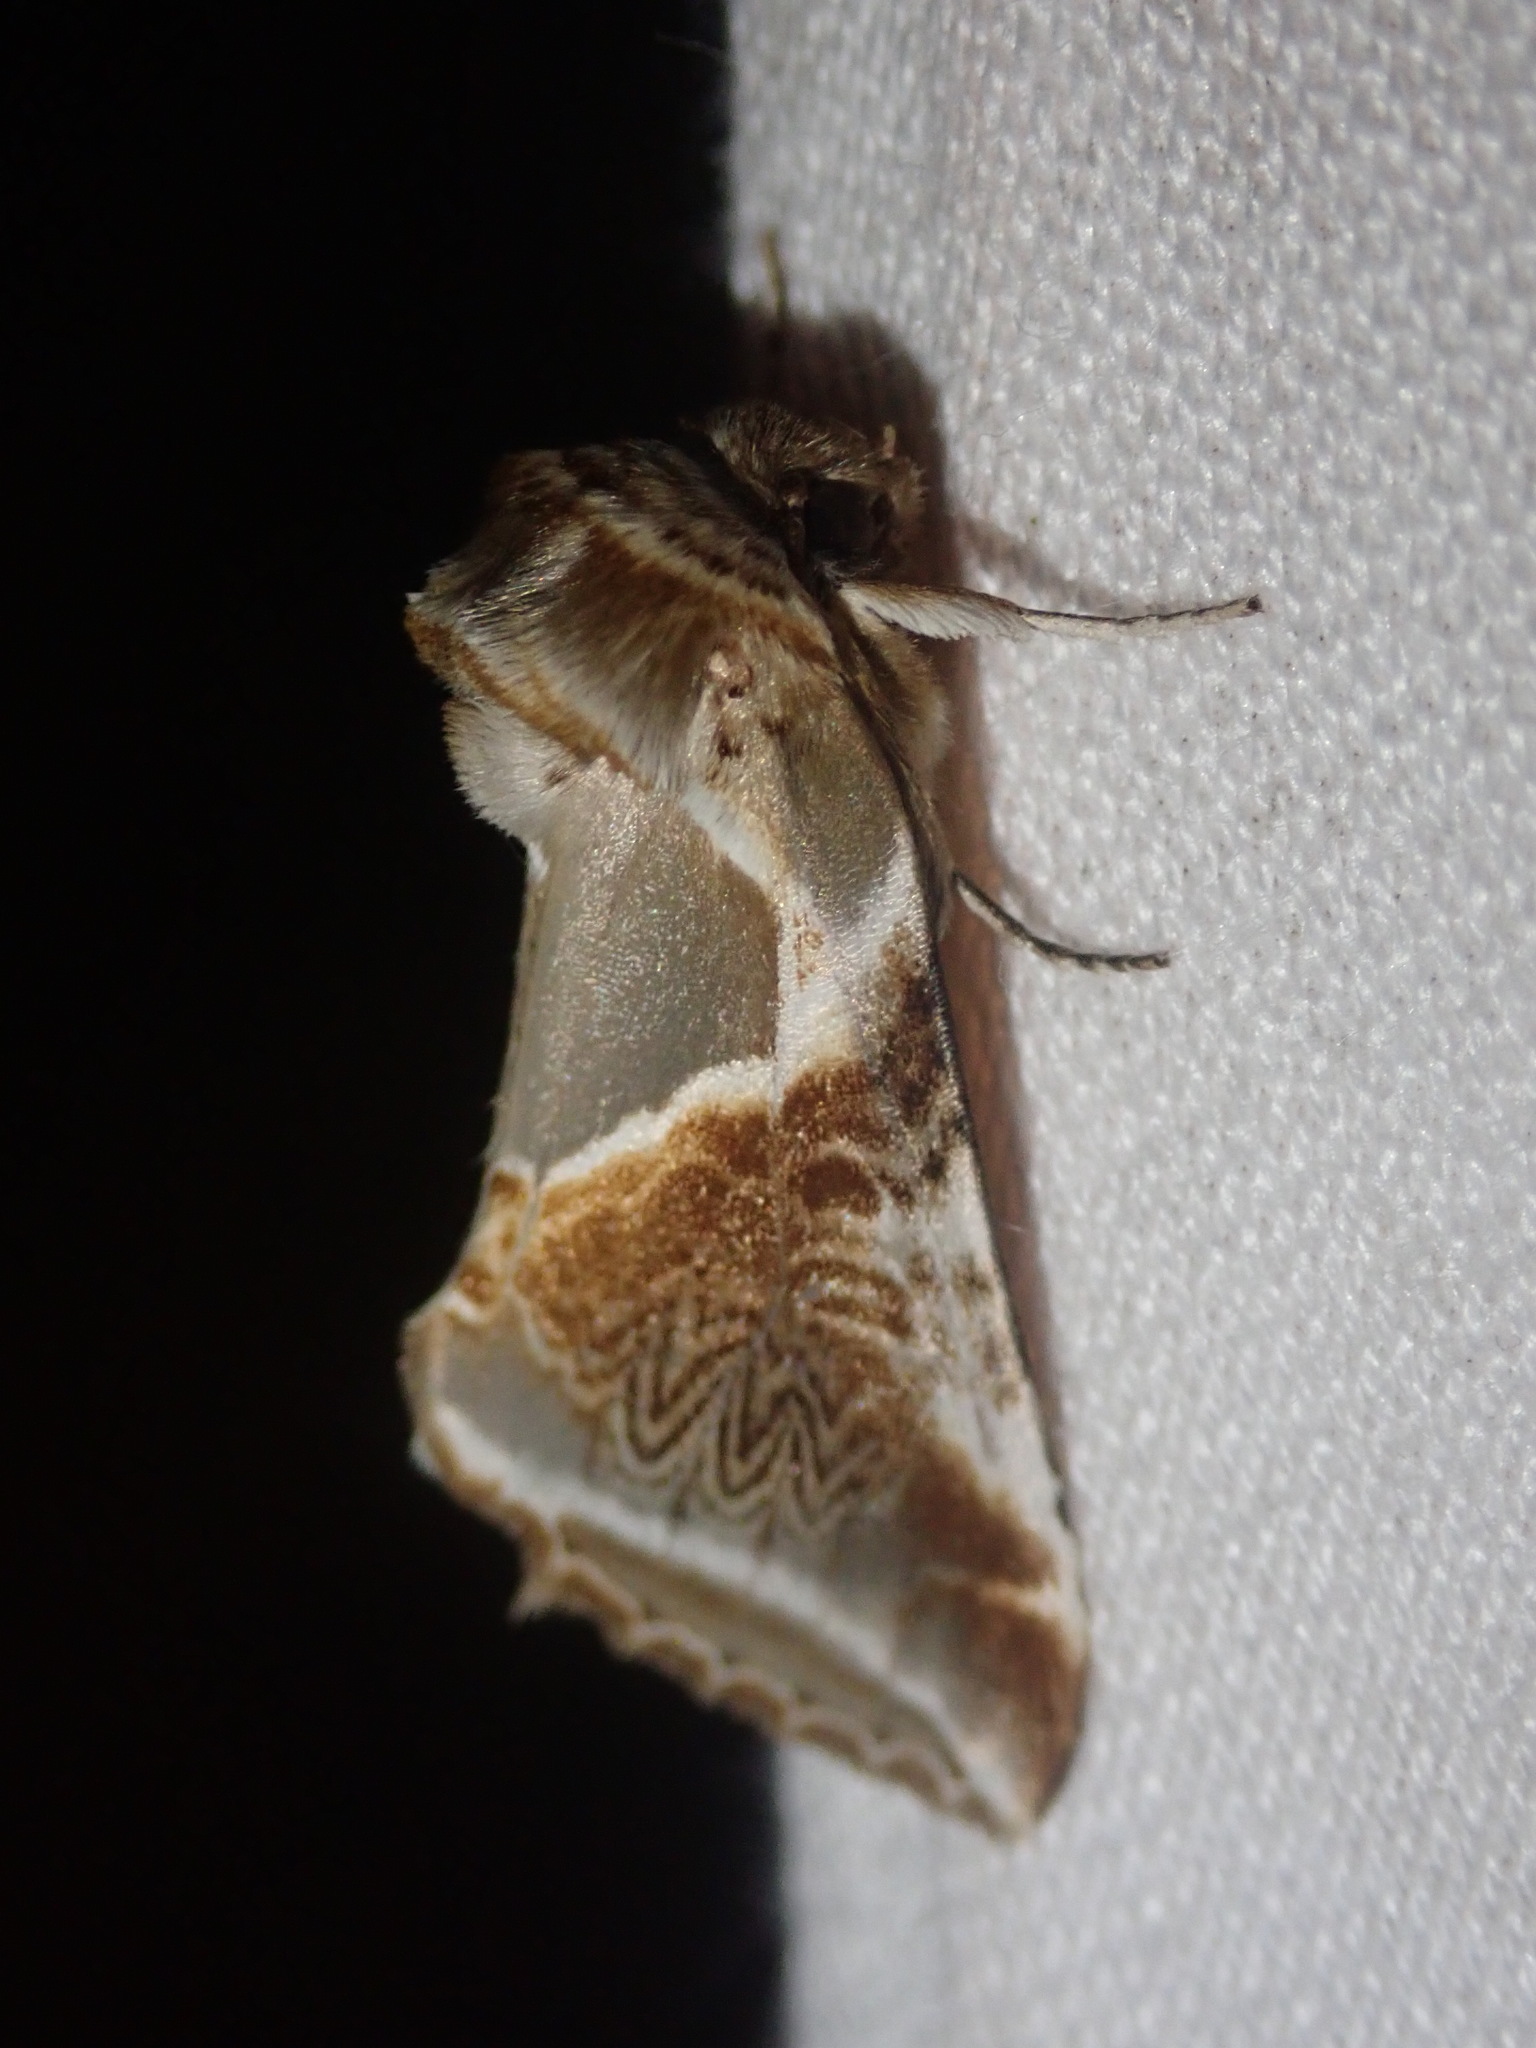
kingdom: Animalia
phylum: Arthropoda
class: Insecta
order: Lepidoptera
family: Drepanidae
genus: Habrosyne
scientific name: Habrosyne pyritoides
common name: Buff arches
